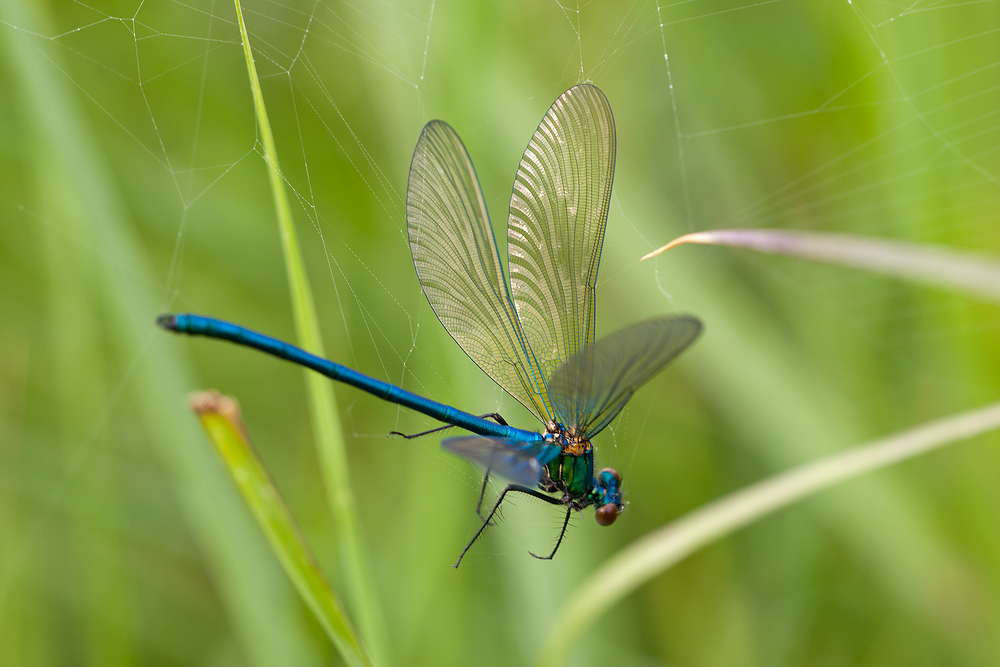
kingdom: Animalia
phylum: Arthropoda
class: Insecta
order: Odonata
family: Calopterygidae
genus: Calopteryx
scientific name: Calopteryx xanthostoma
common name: Western demoiselle
